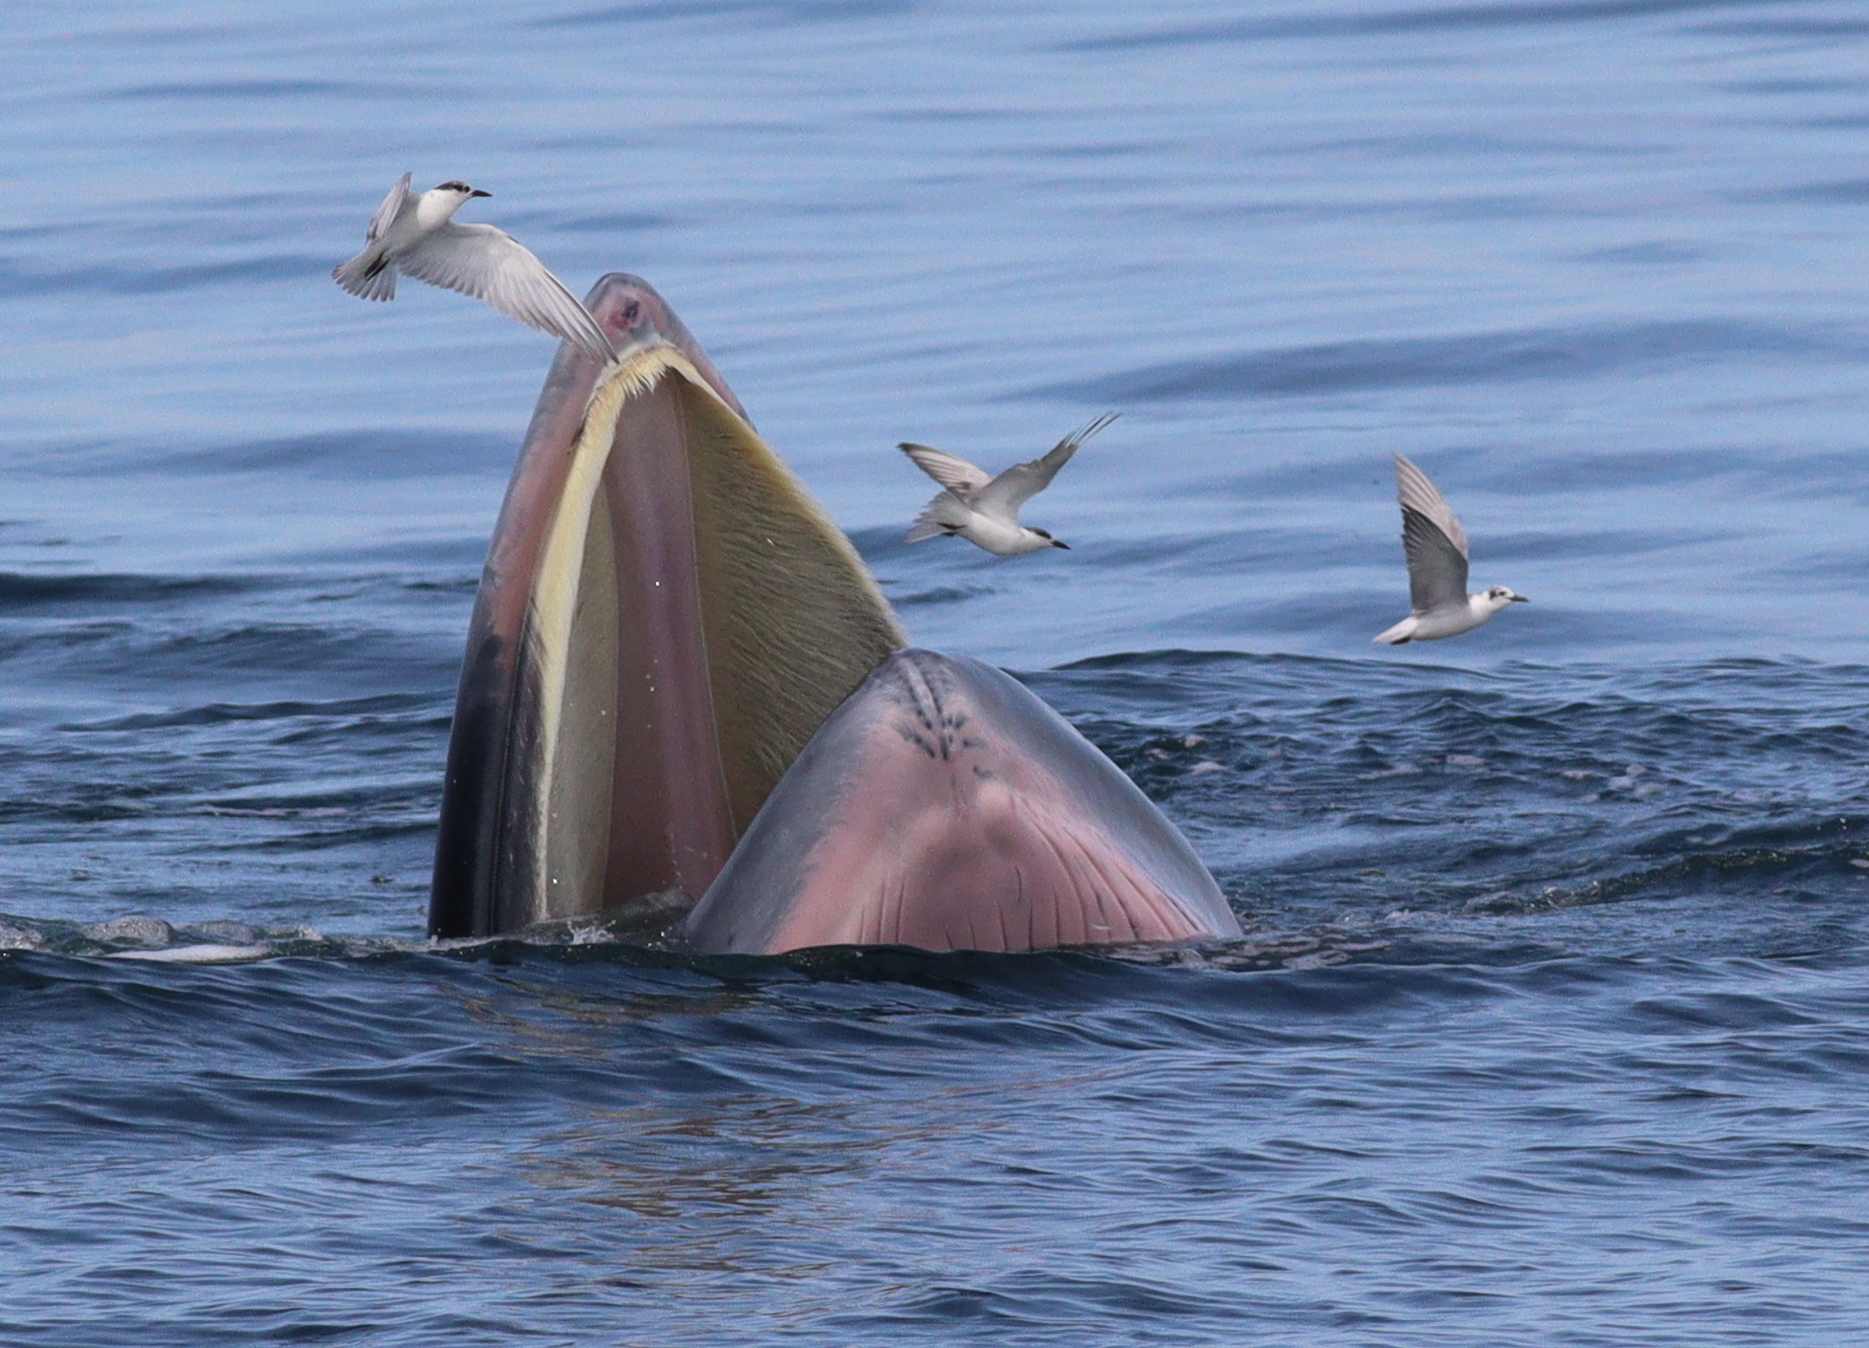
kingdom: Animalia
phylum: Chordata
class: Mammalia
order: Cetacea
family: Balaenopteridae
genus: Balaenoptera
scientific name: Balaenoptera edeni
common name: Bryde's whale
